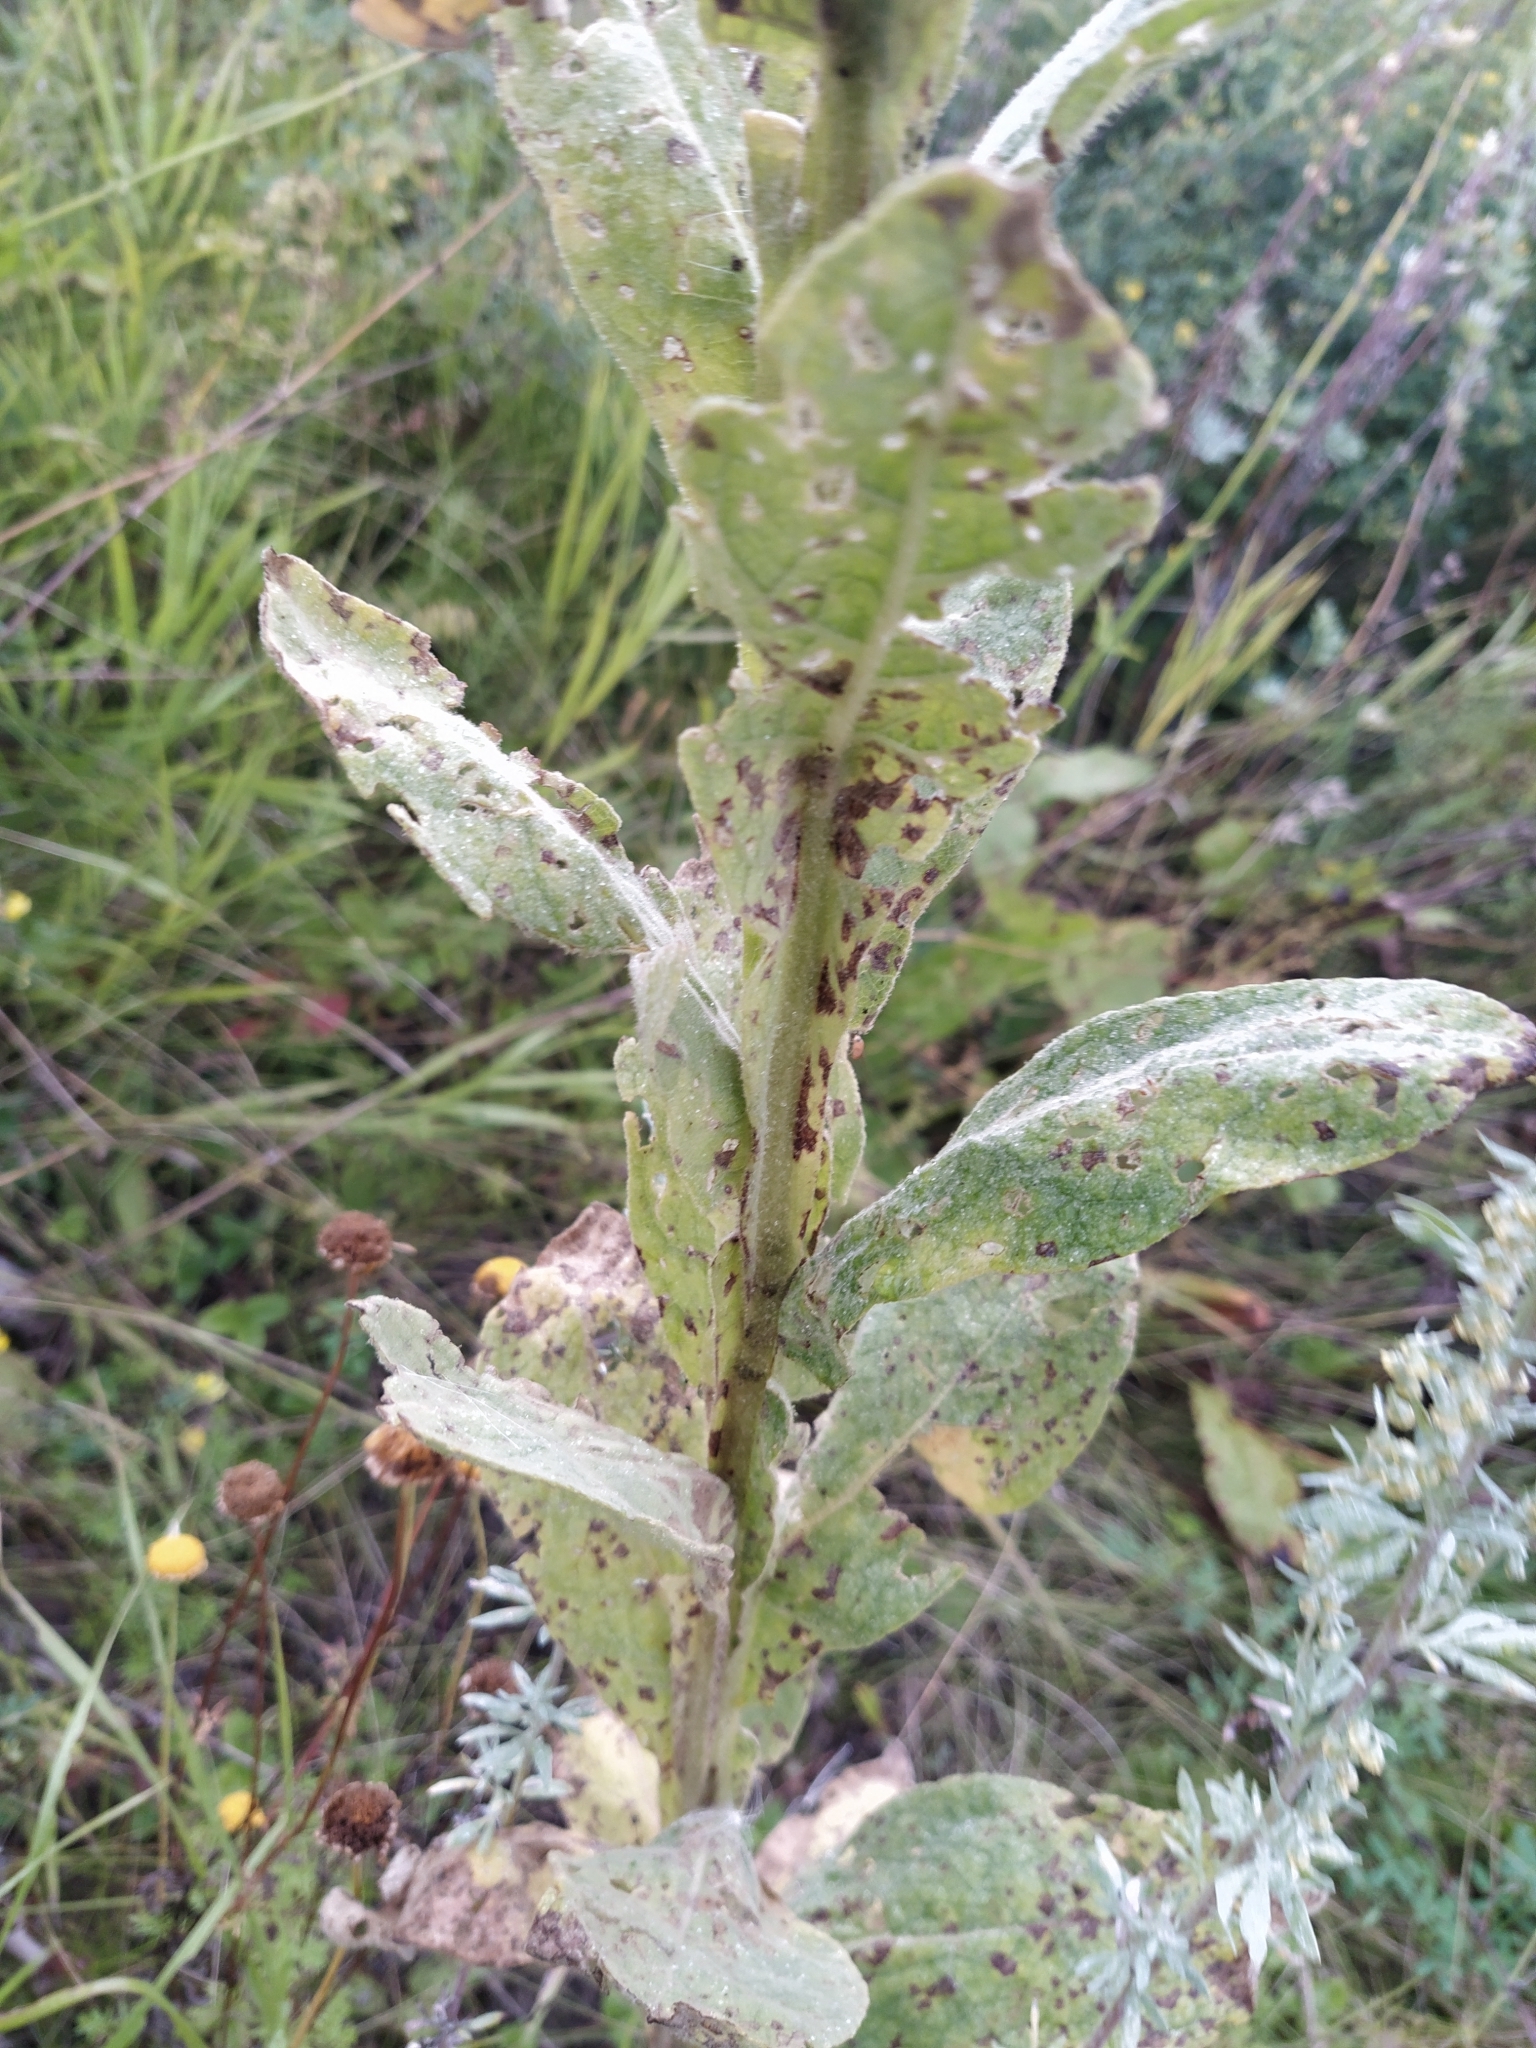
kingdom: Plantae
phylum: Tracheophyta
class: Magnoliopsida
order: Lamiales
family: Scrophulariaceae
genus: Verbascum
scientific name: Verbascum thapsus
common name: Common mullein
